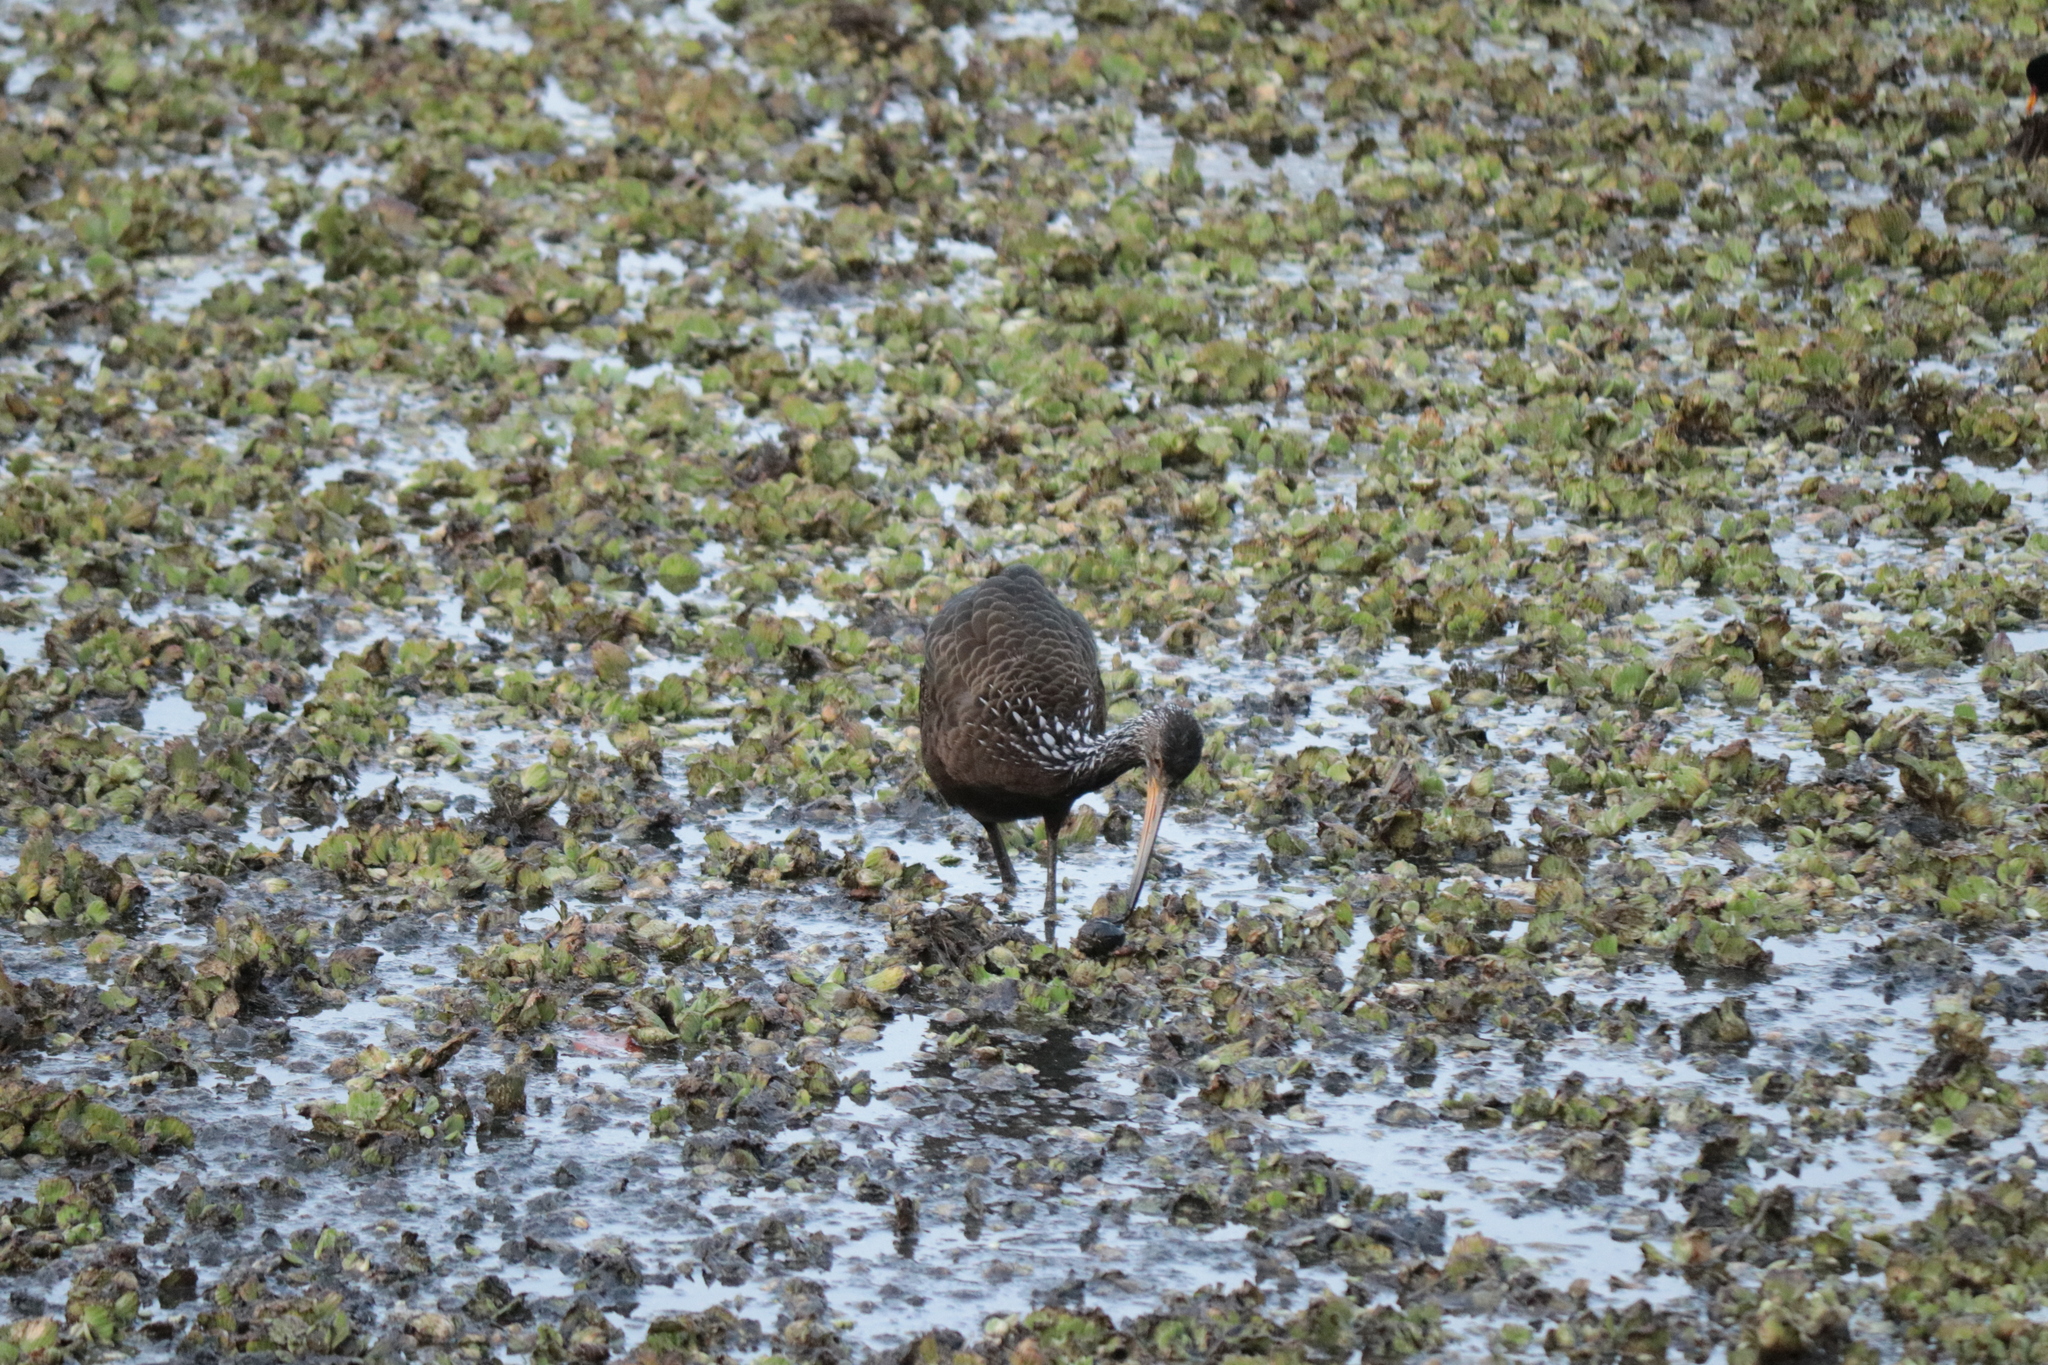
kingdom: Animalia
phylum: Chordata
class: Aves
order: Gruiformes
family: Aramidae
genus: Aramus
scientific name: Aramus guarauna
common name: Limpkin
